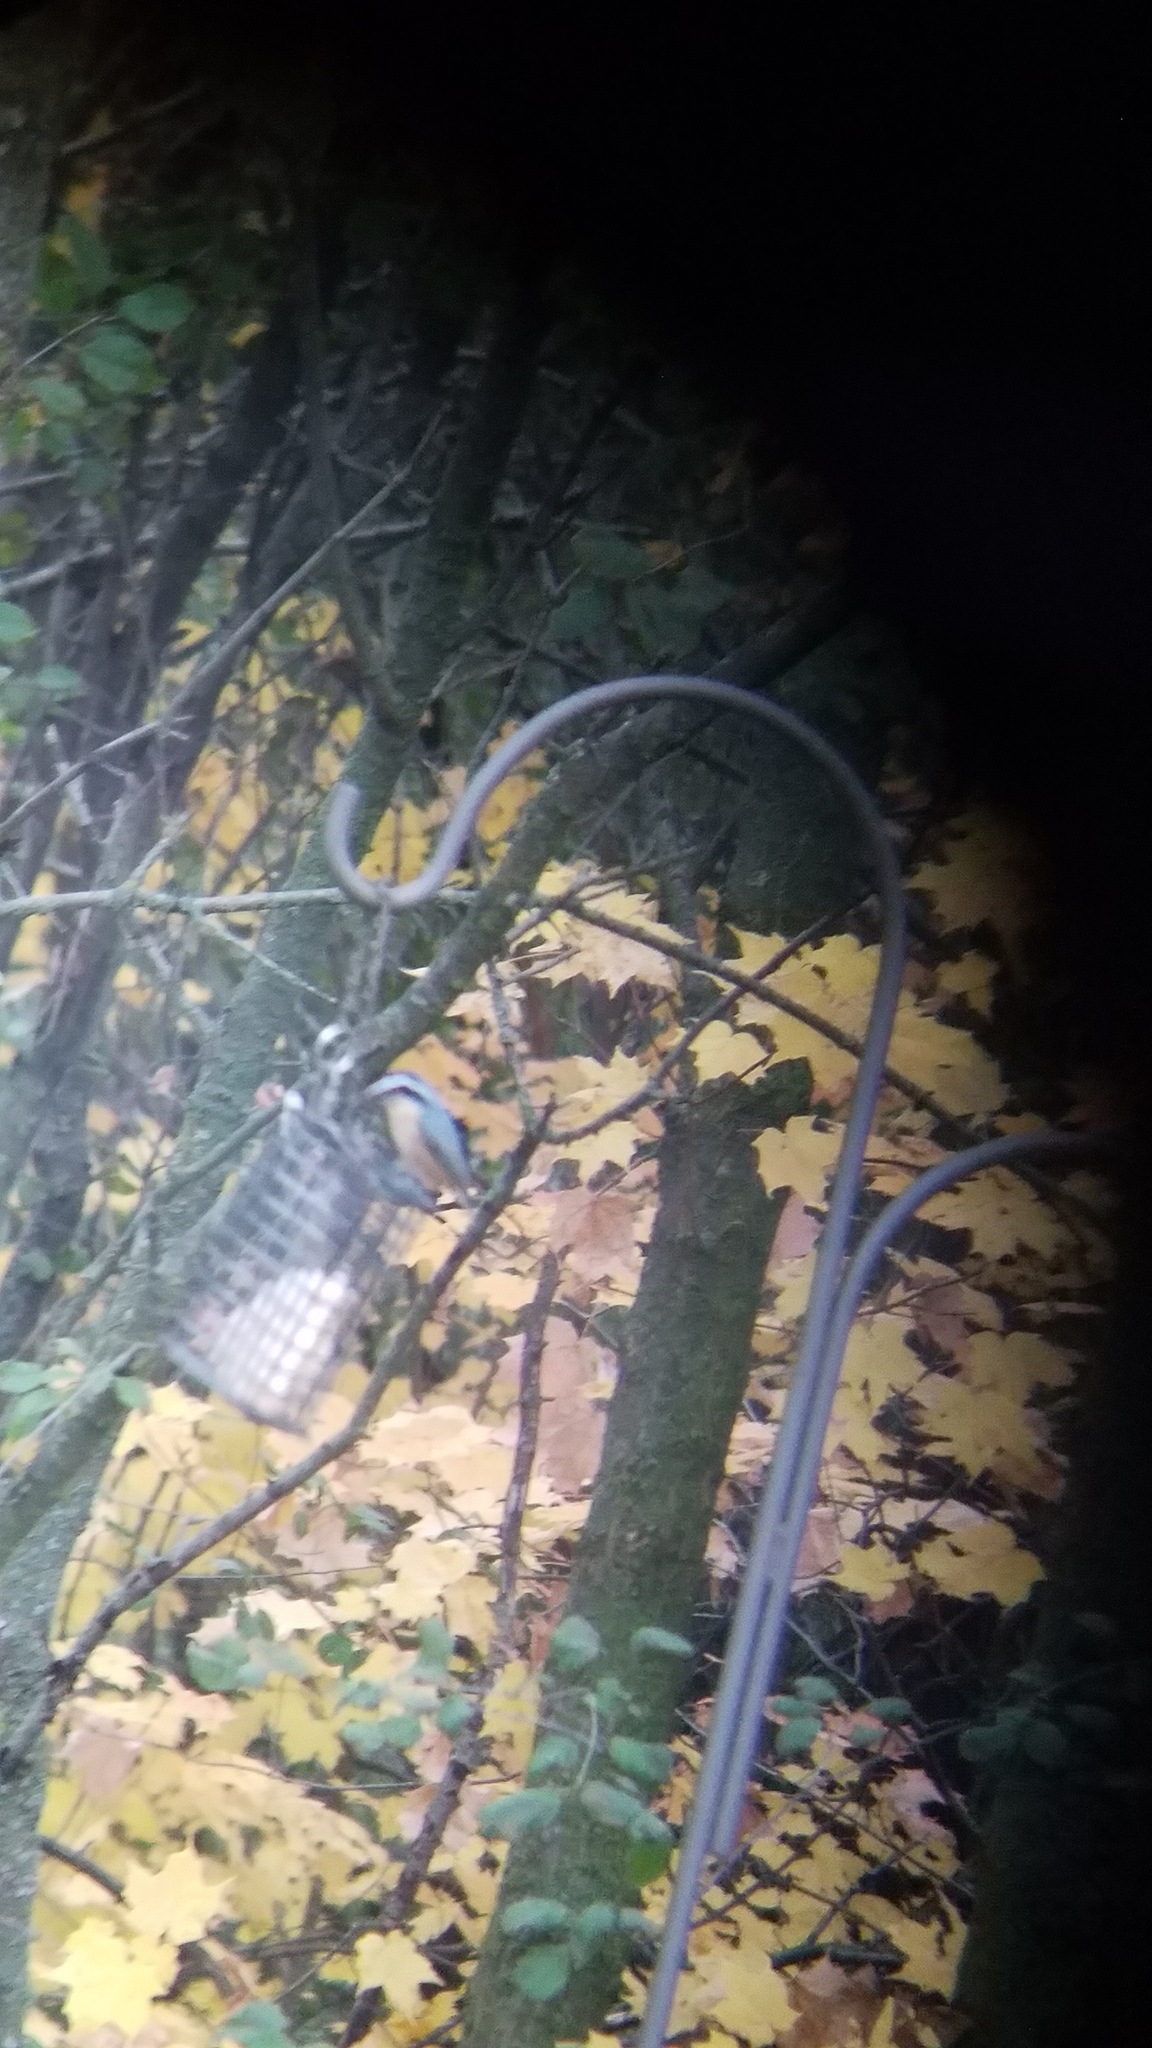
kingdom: Animalia
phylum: Chordata
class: Aves
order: Passeriformes
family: Sittidae
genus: Sitta
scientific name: Sitta canadensis
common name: Red-breasted nuthatch
